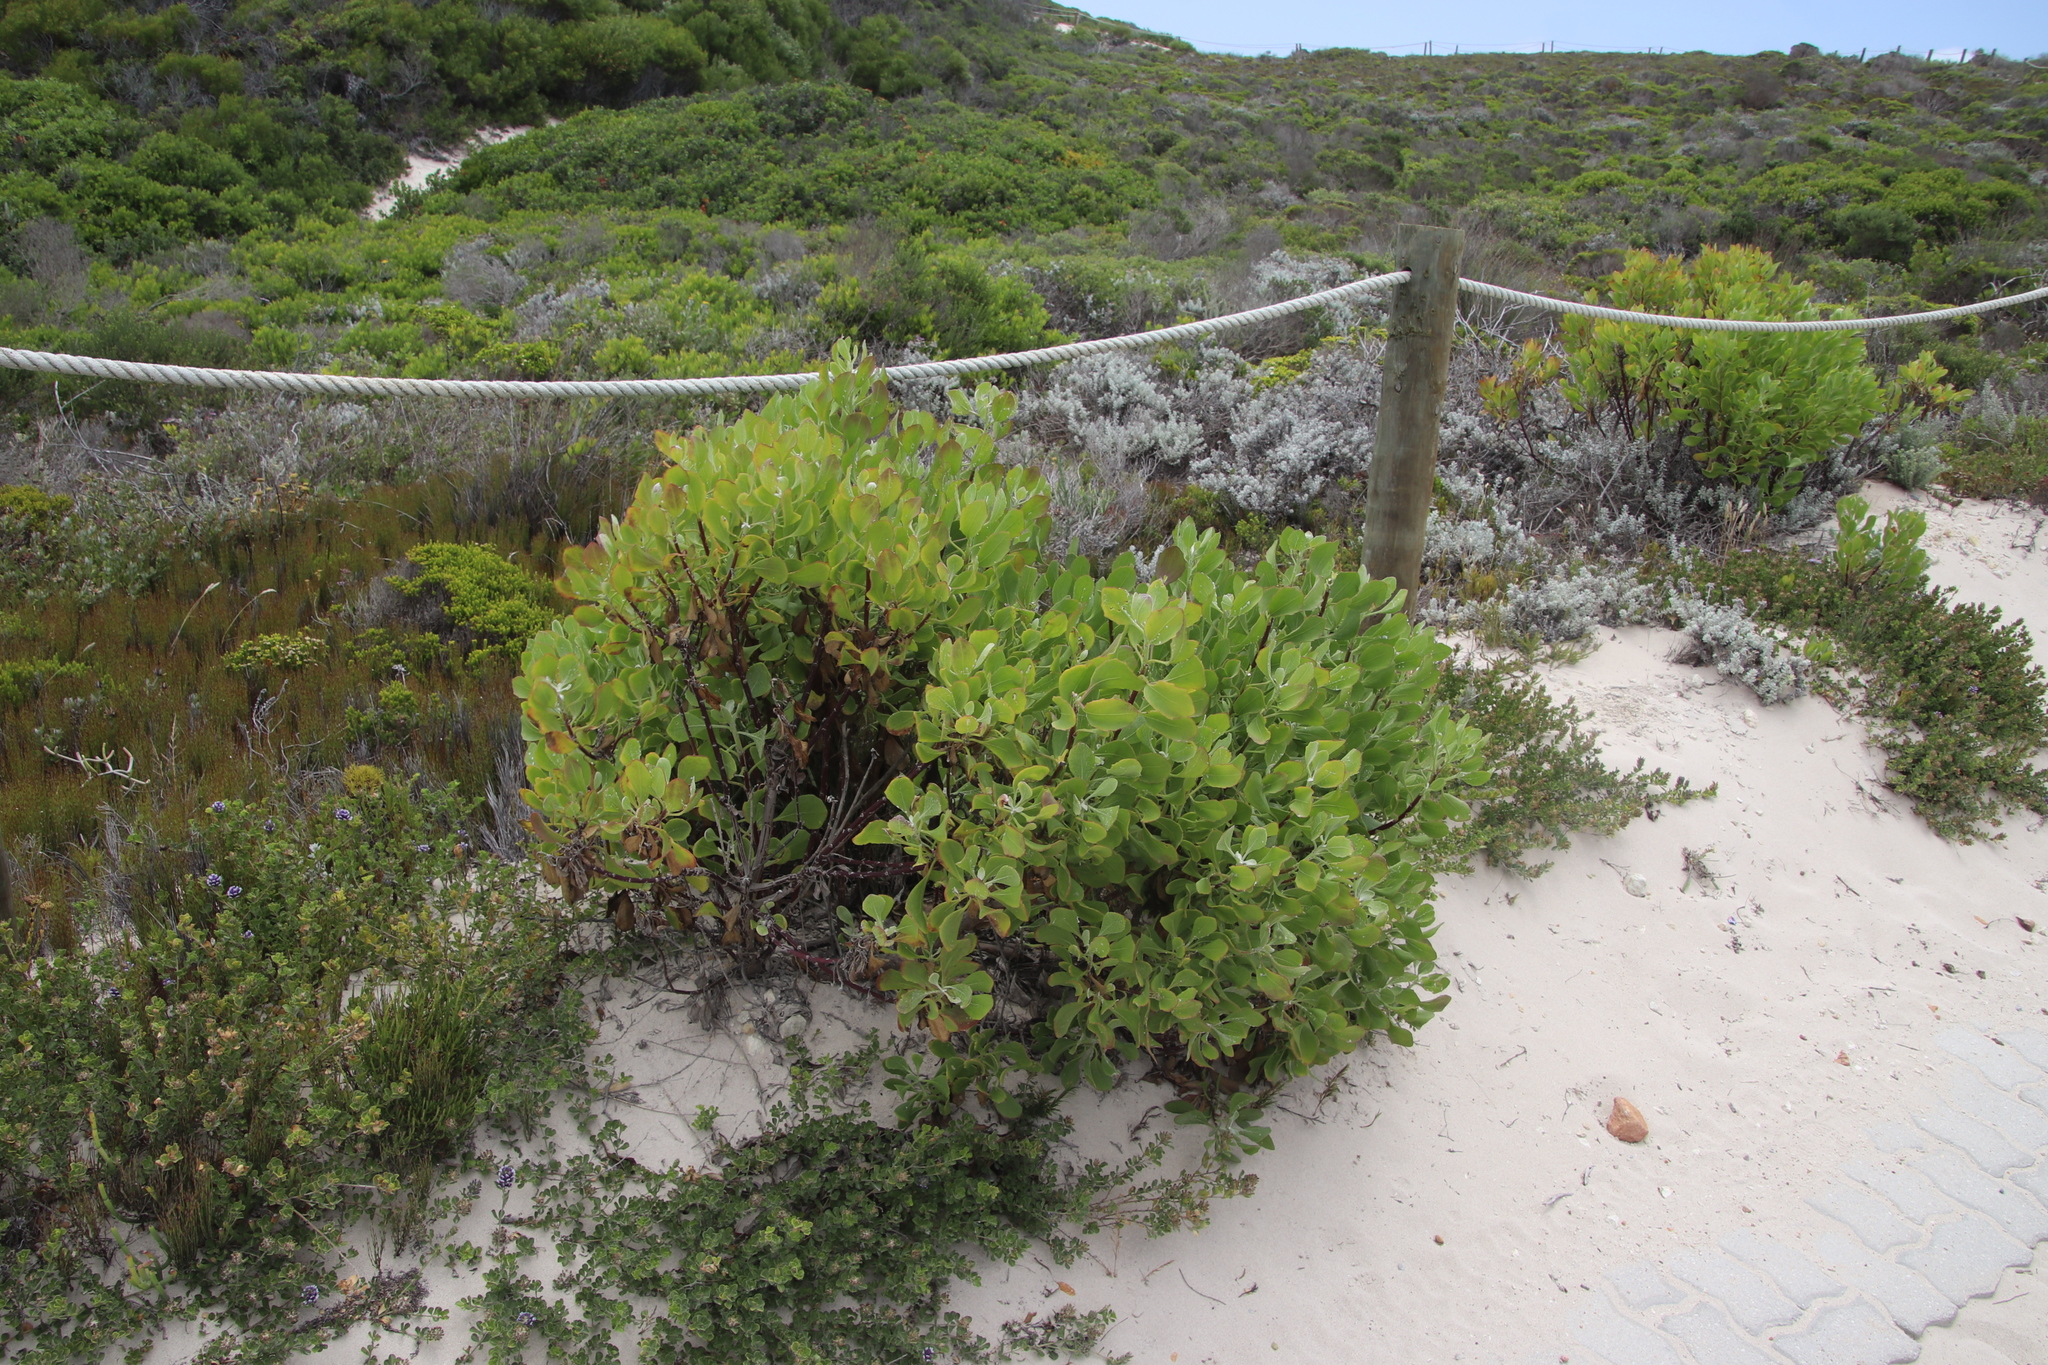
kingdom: Plantae
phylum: Tracheophyta
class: Magnoliopsida
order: Asterales
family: Asteraceae
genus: Osteospermum
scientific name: Osteospermum moniliferum
